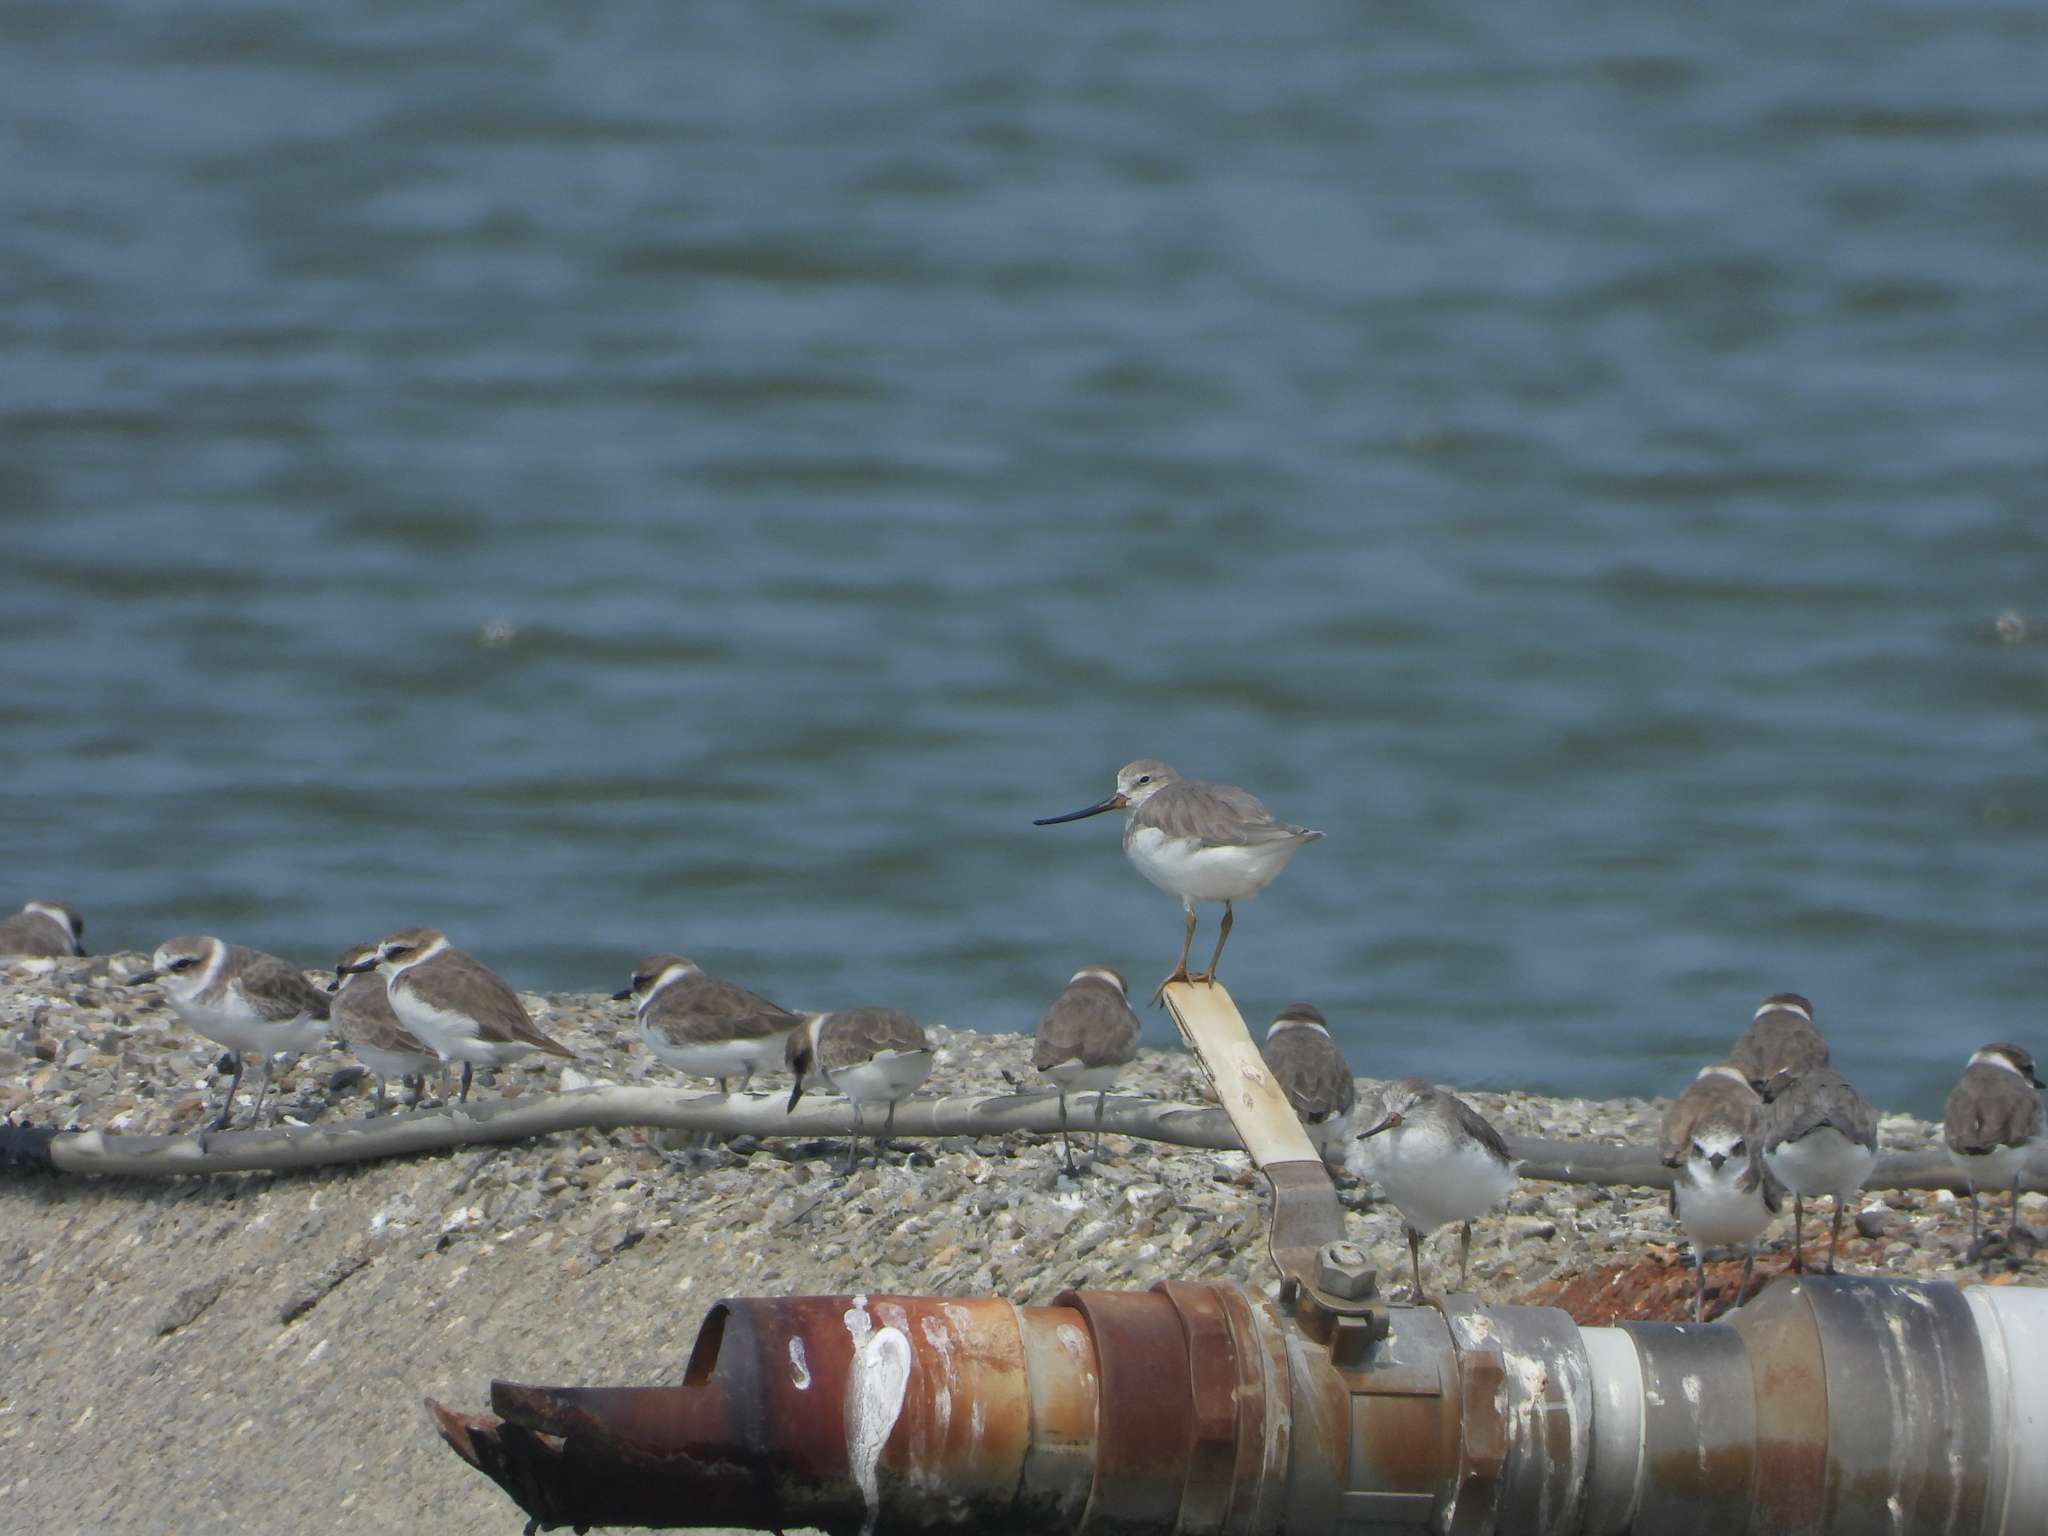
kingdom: Animalia
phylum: Chordata
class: Aves
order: Charadriiformes
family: Scolopacidae
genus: Xenus
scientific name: Xenus cinereus
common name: Terek sandpiper
